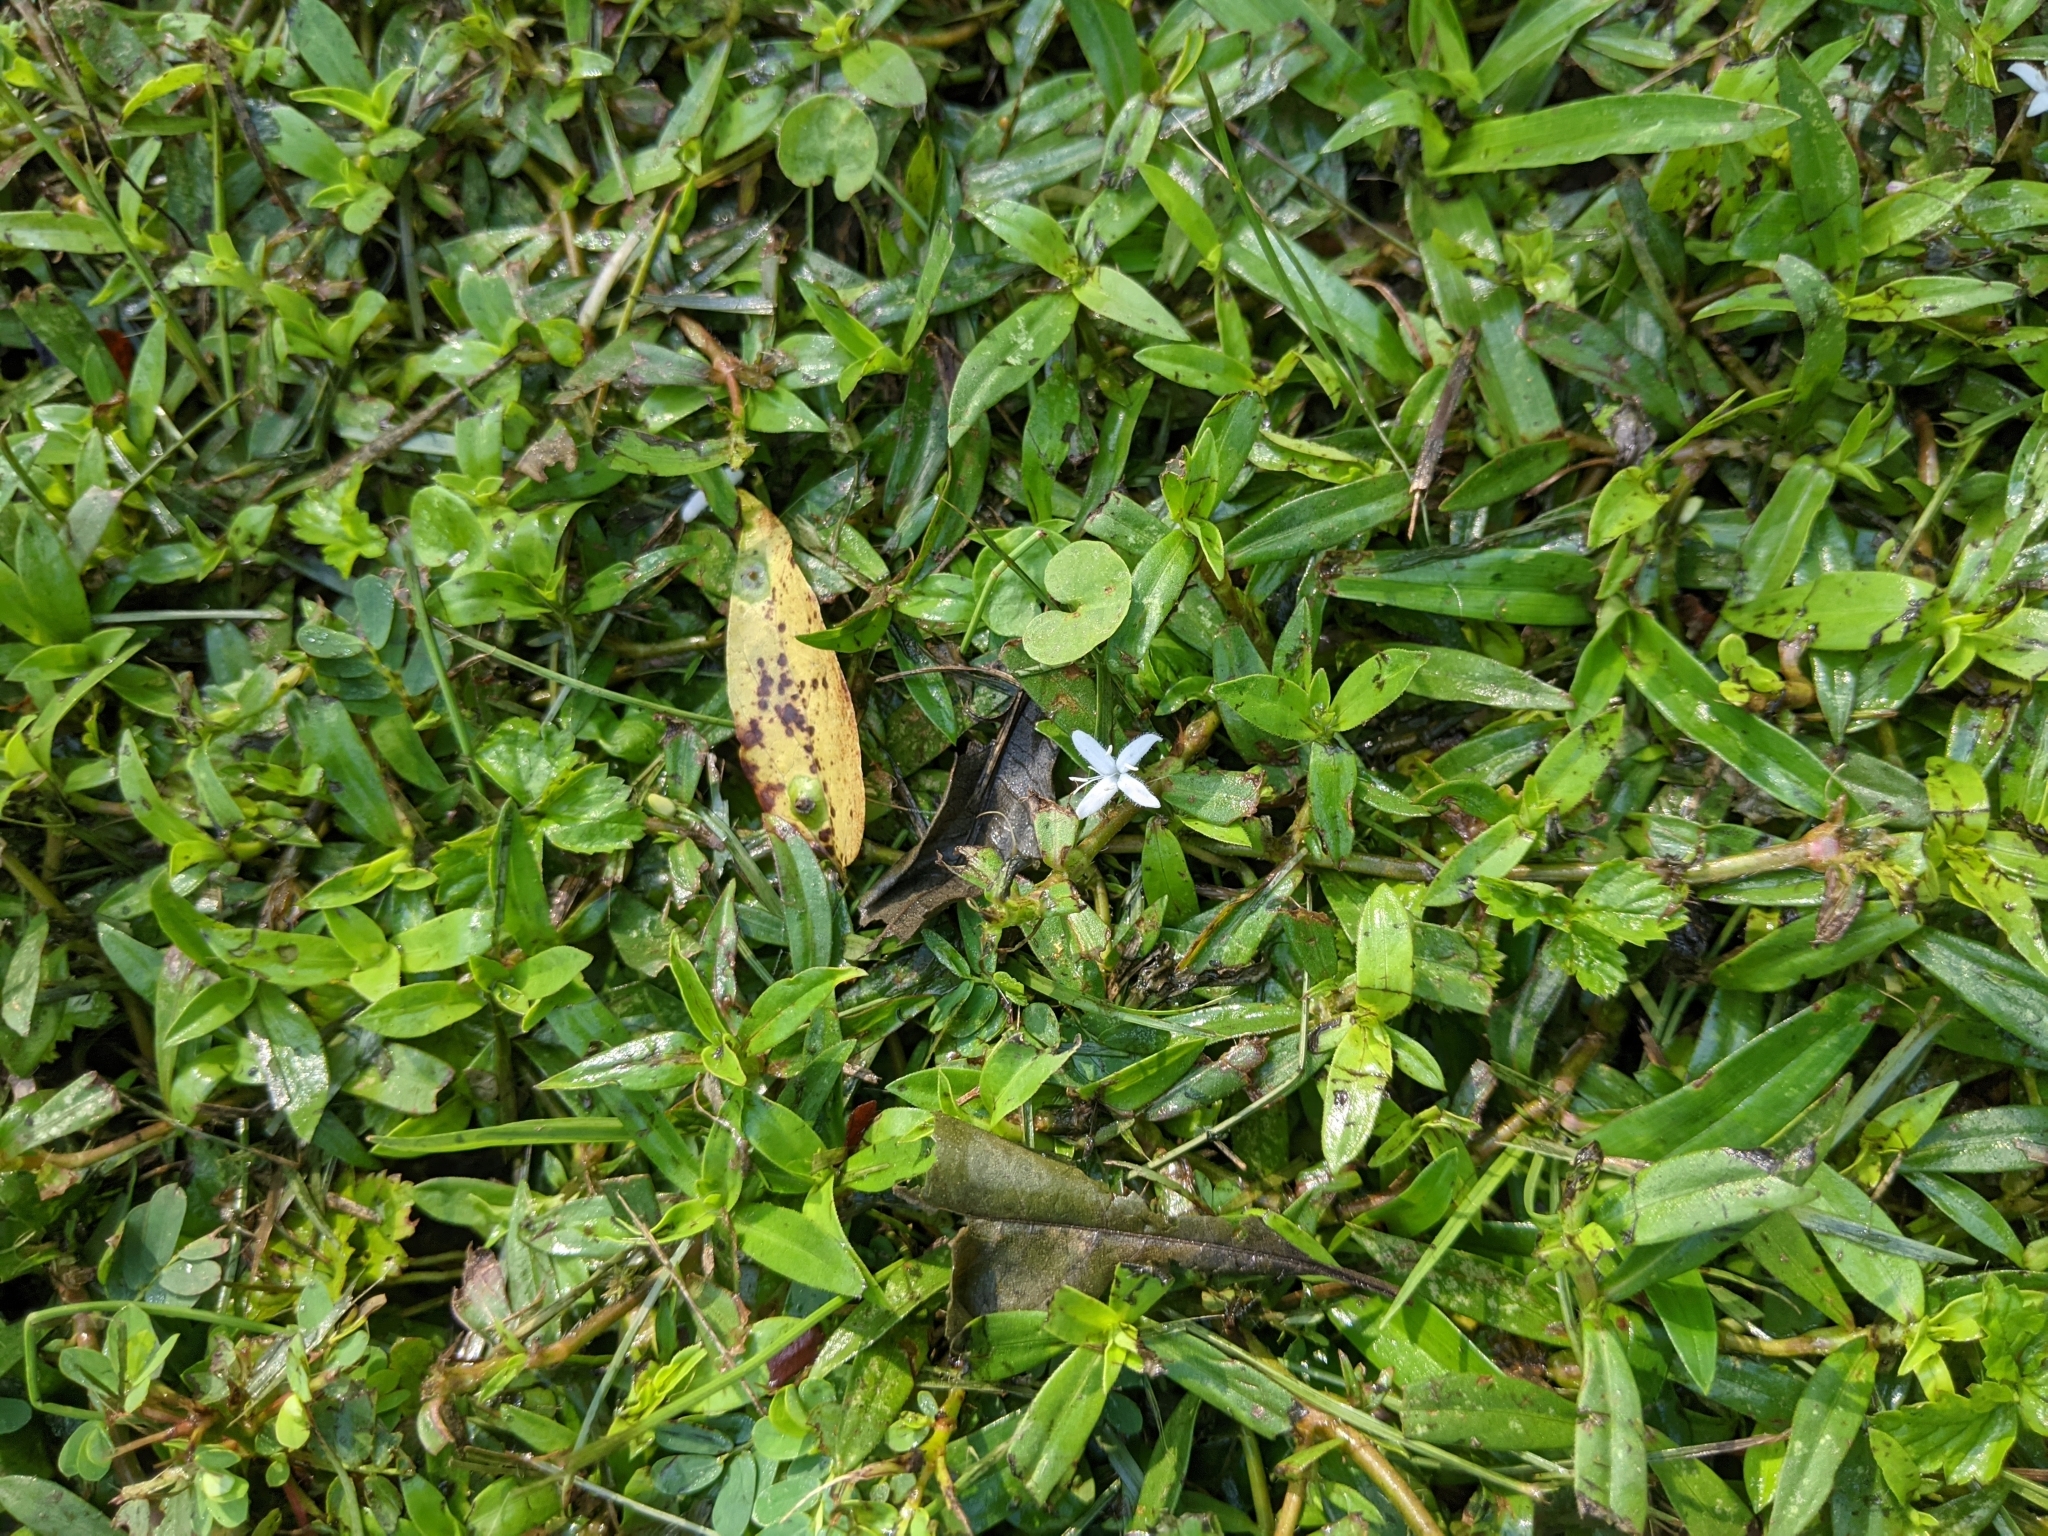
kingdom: Plantae
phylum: Tracheophyta
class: Magnoliopsida
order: Gentianales
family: Rubiaceae
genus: Diodia
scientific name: Diodia virginiana
